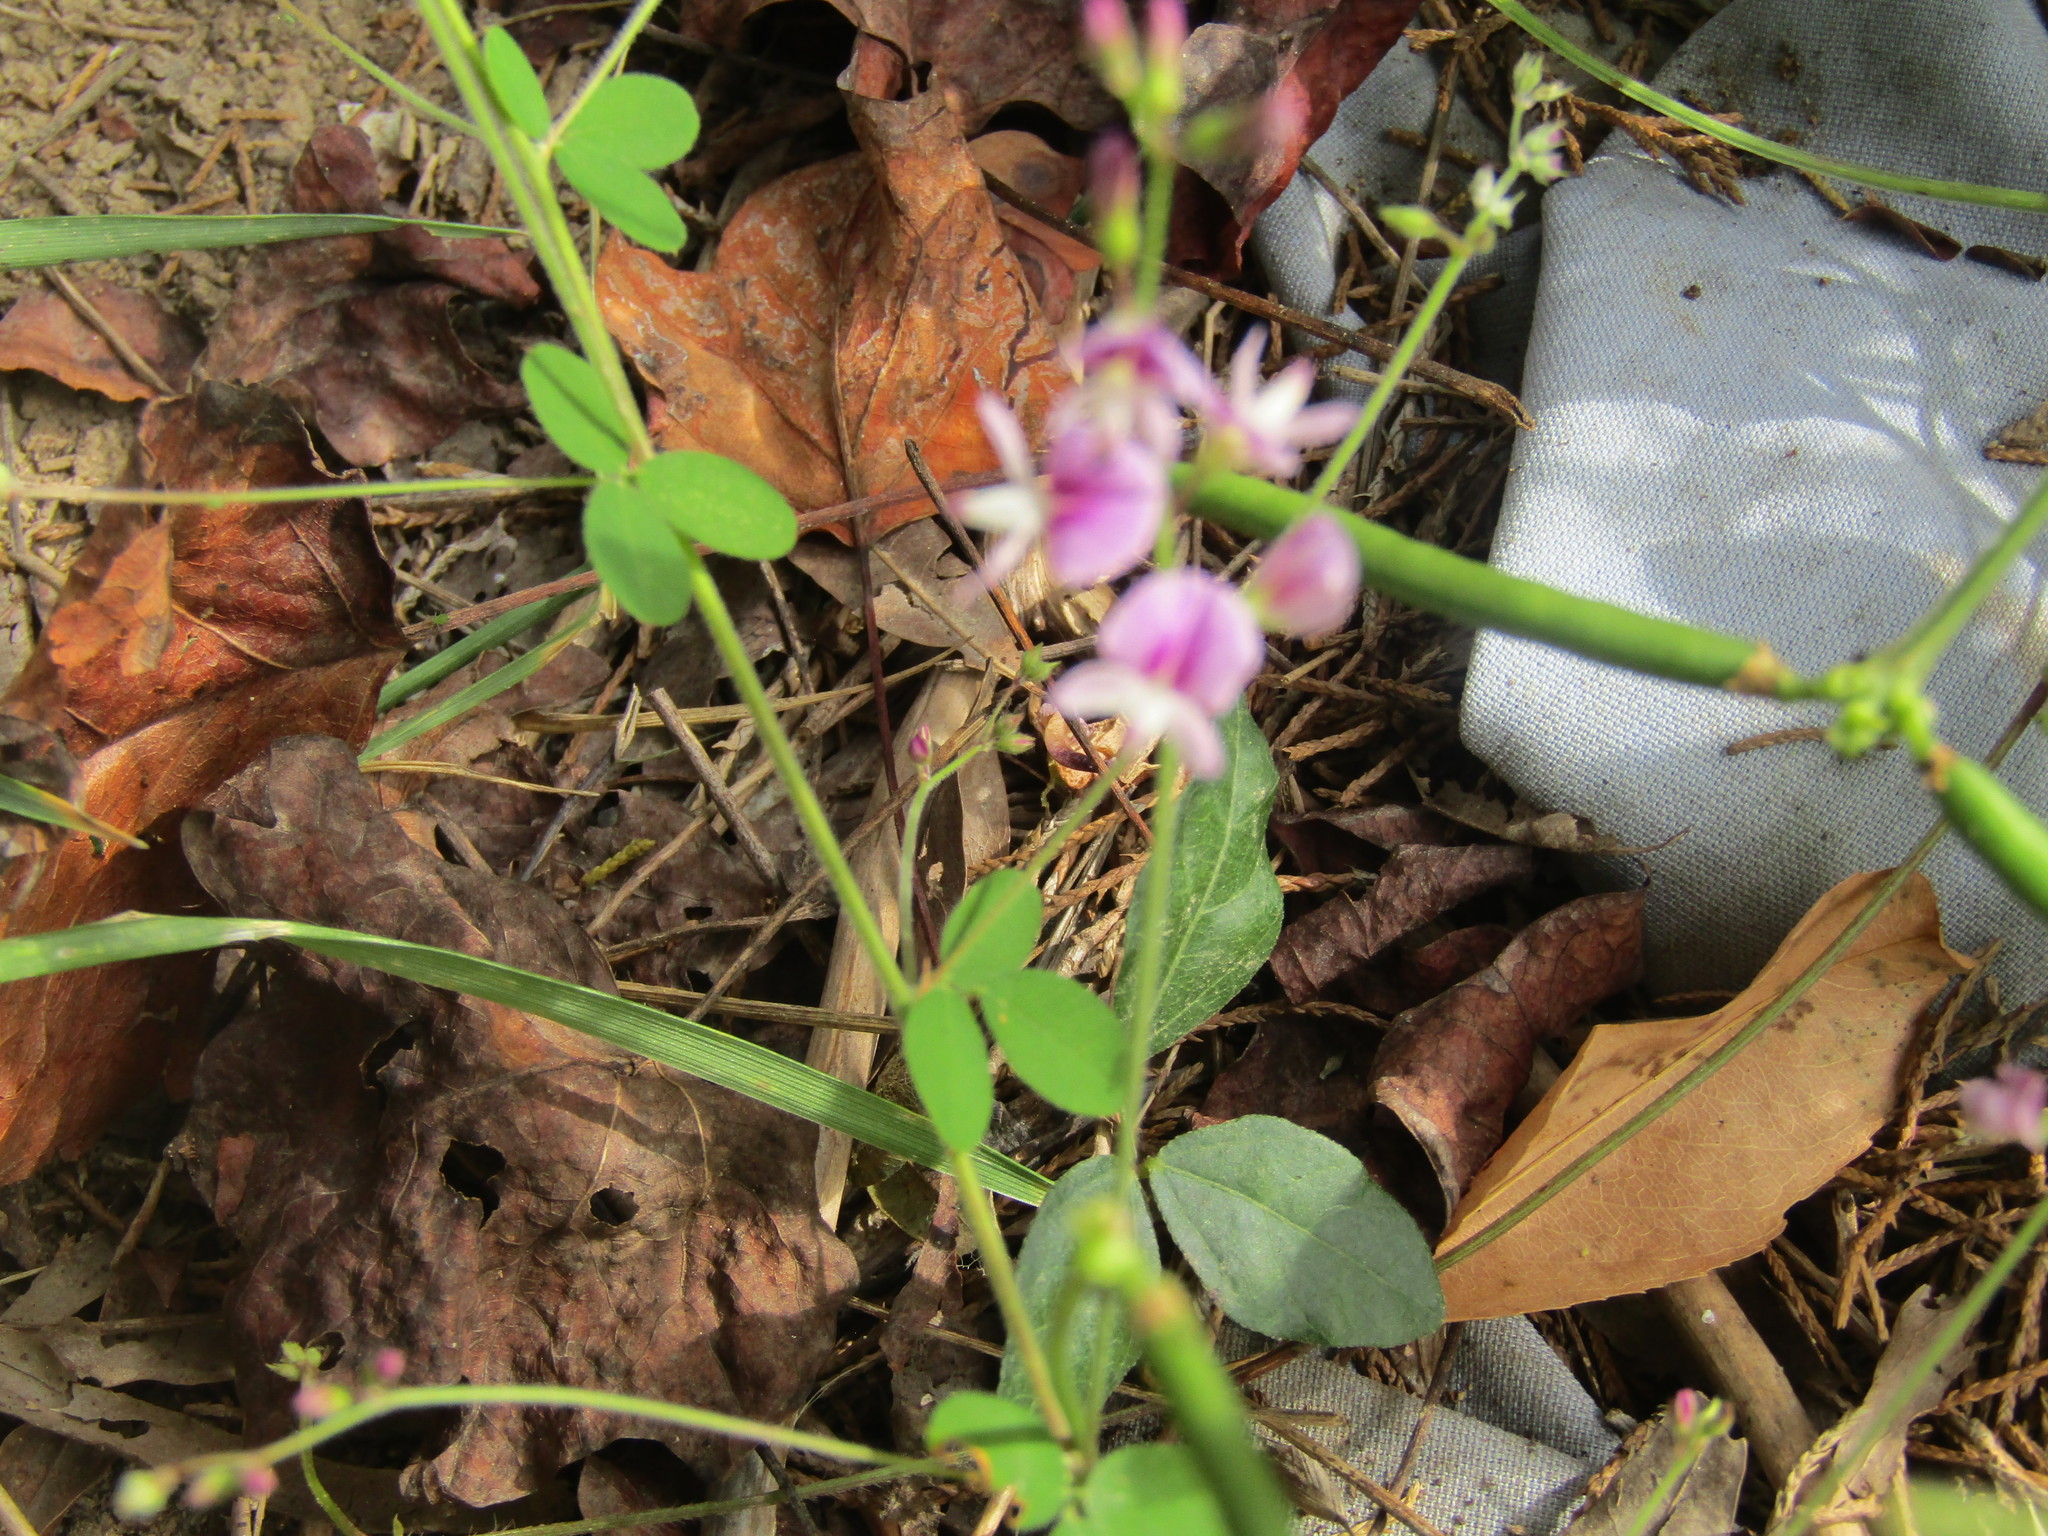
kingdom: Plantae
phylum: Tracheophyta
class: Magnoliopsida
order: Fabales
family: Fabaceae
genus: Lespedeza
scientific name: Lespedeza procumbens
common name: Downy trailing bush-clover
